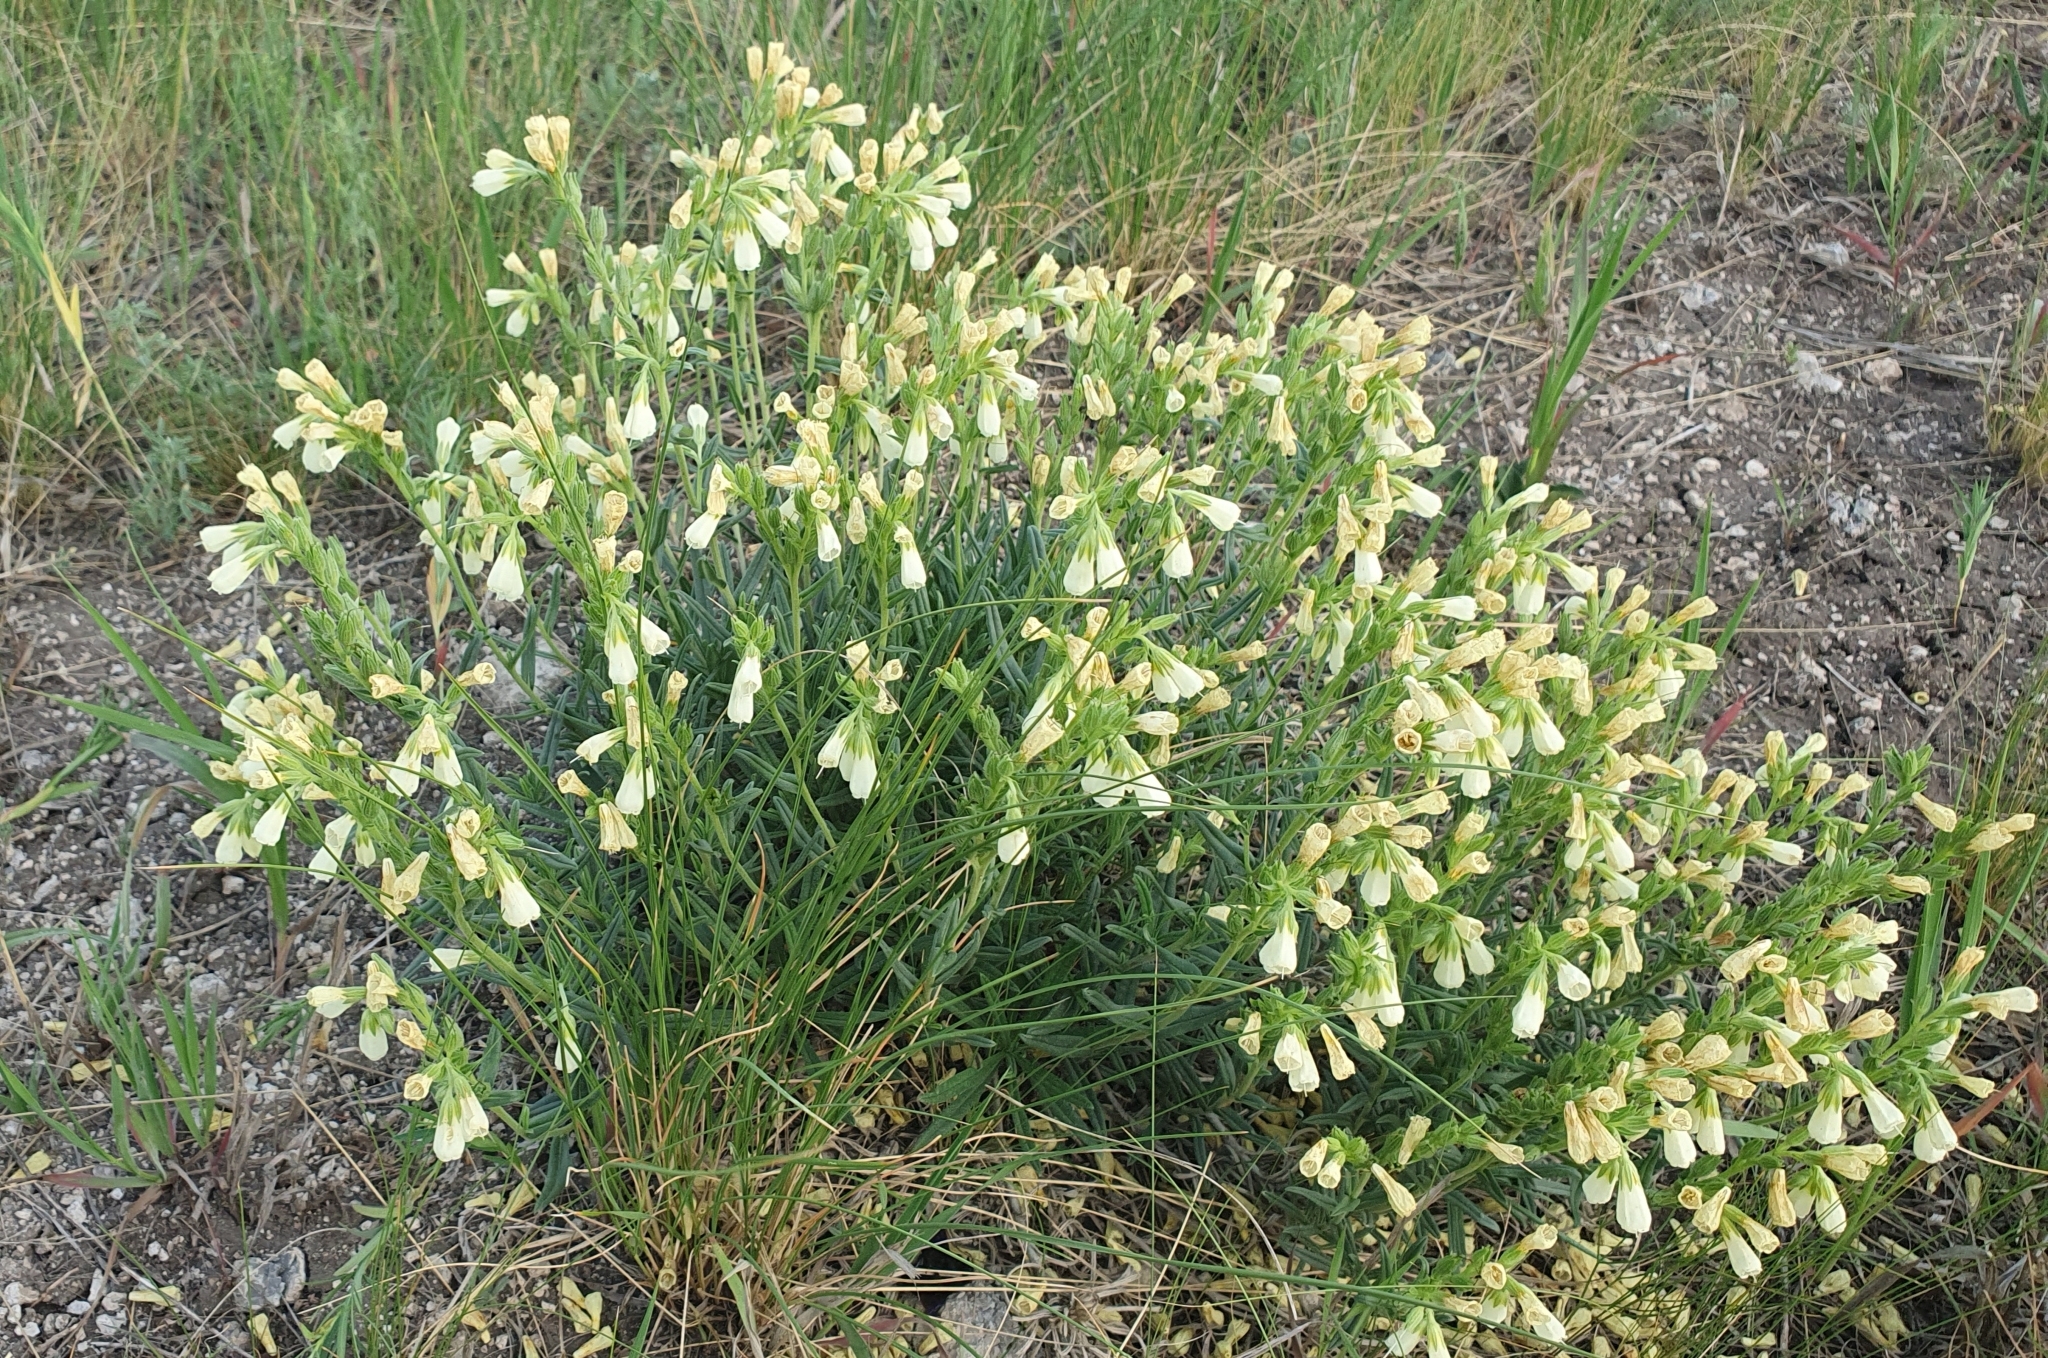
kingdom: Plantae
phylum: Tracheophyta
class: Magnoliopsida
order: Boraginales
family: Boraginaceae
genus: Onosma
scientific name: Onosma simplicissima
